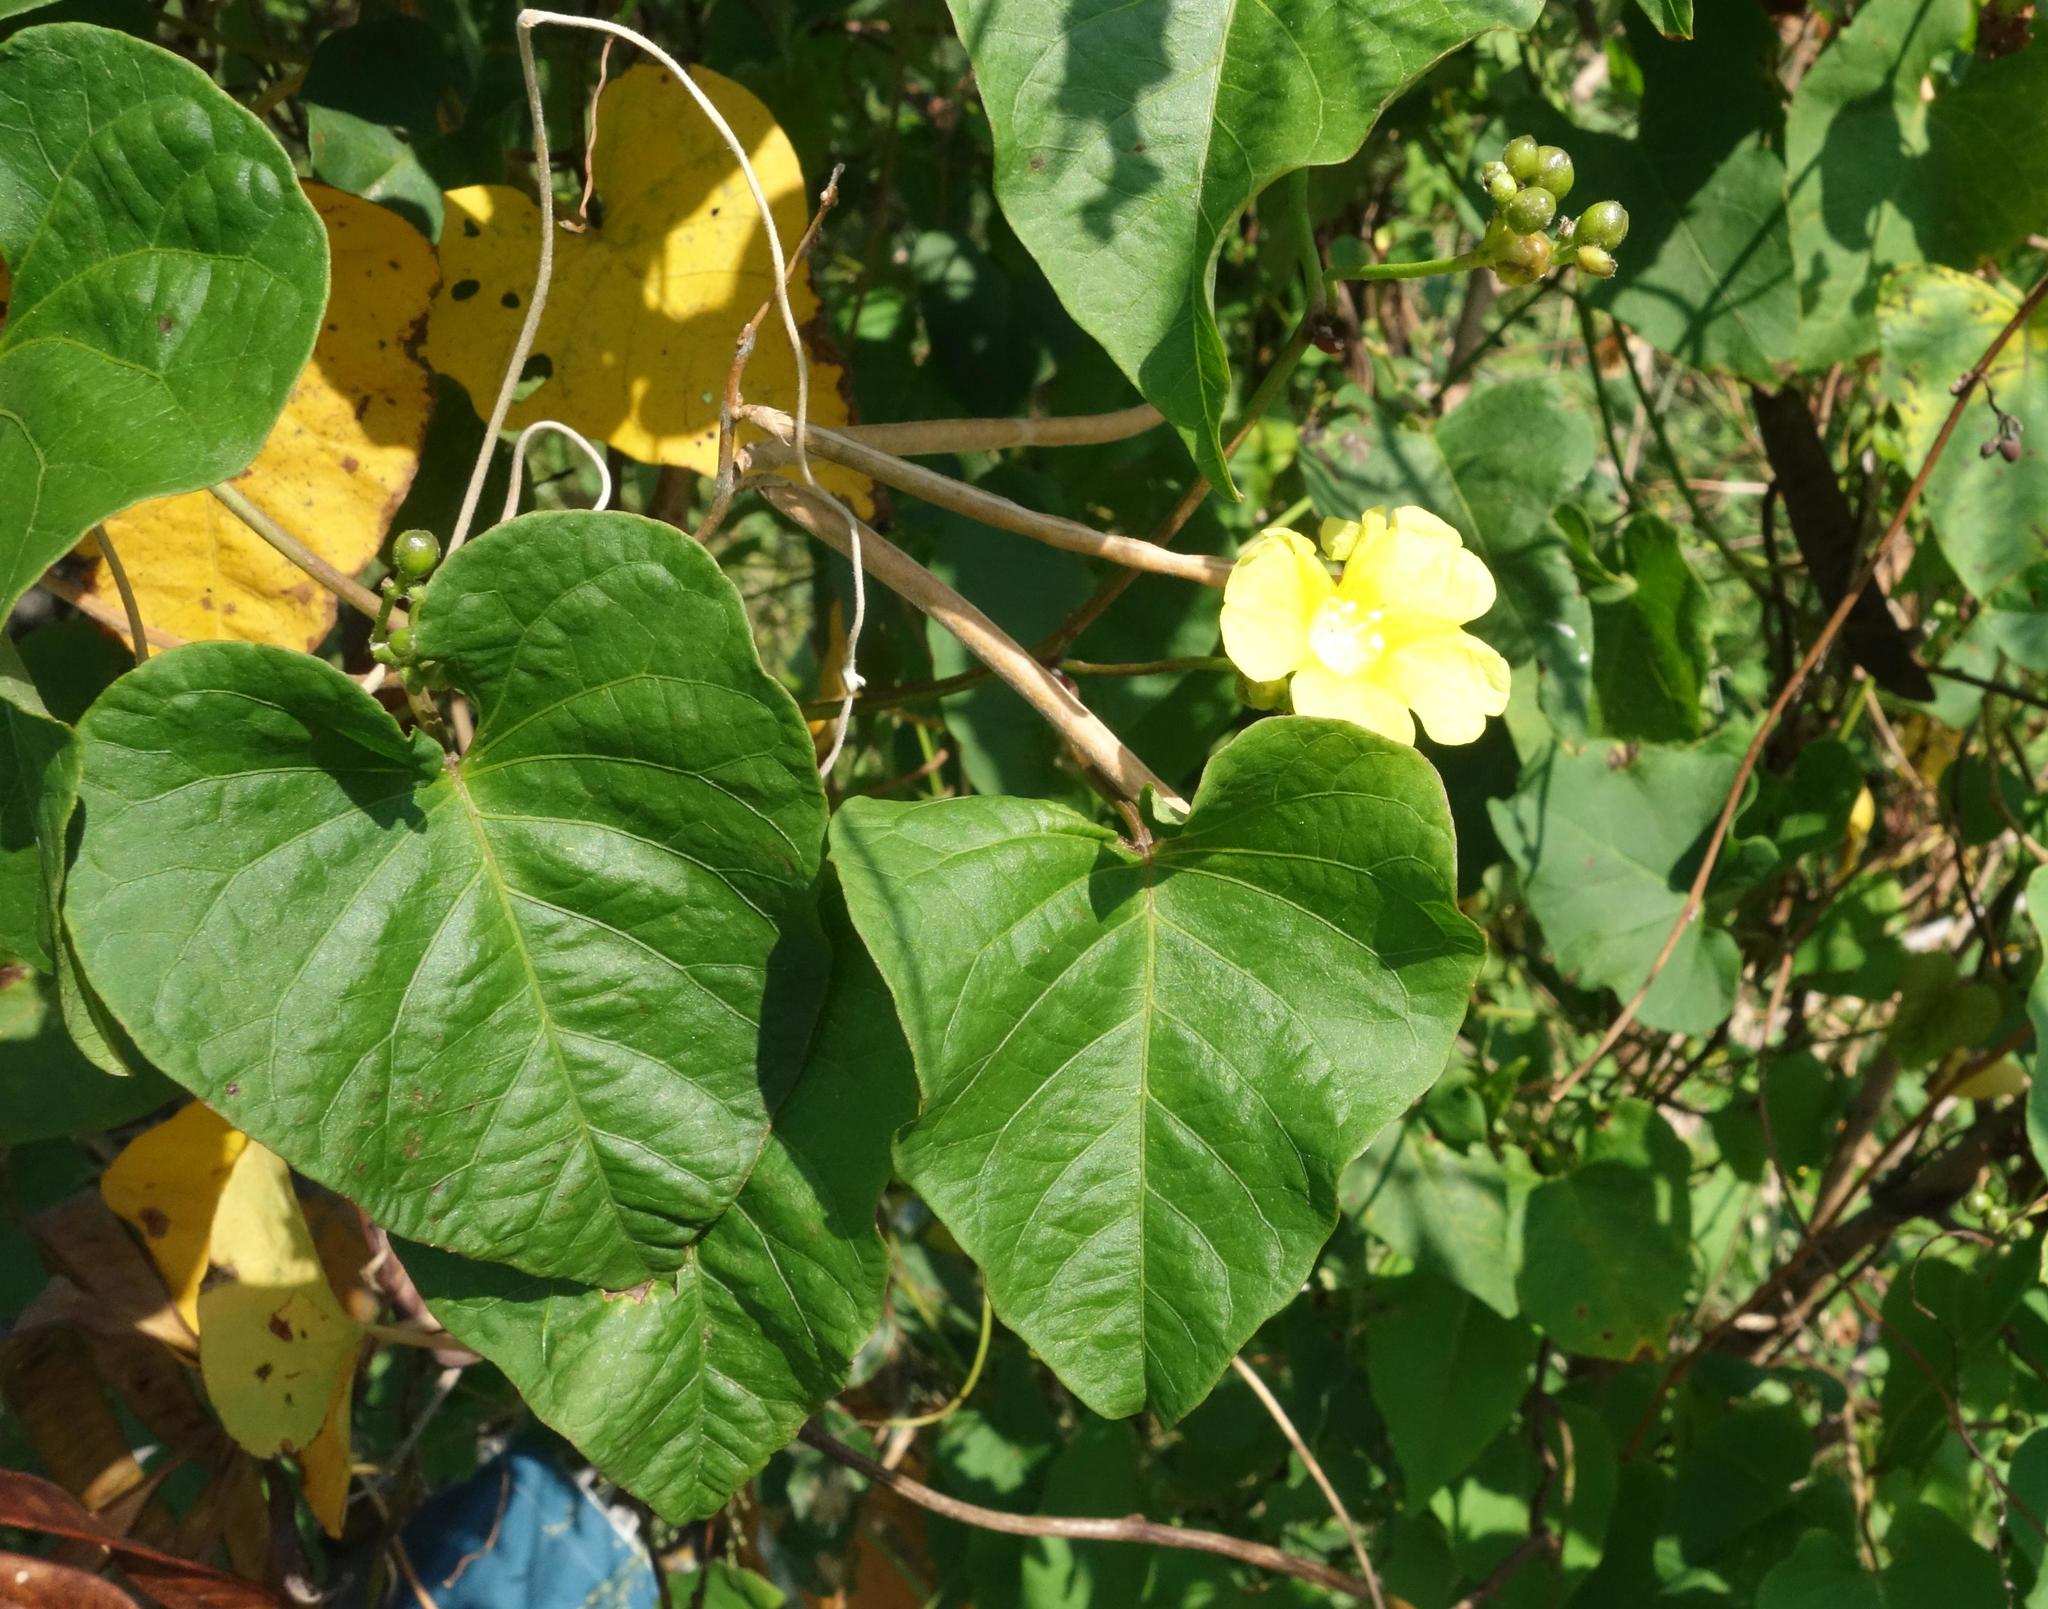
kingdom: Plantae
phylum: Tracheophyta
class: Magnoliopsida
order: Solanales
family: Convolvulaceae
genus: Merremia
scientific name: Merremia gemella
